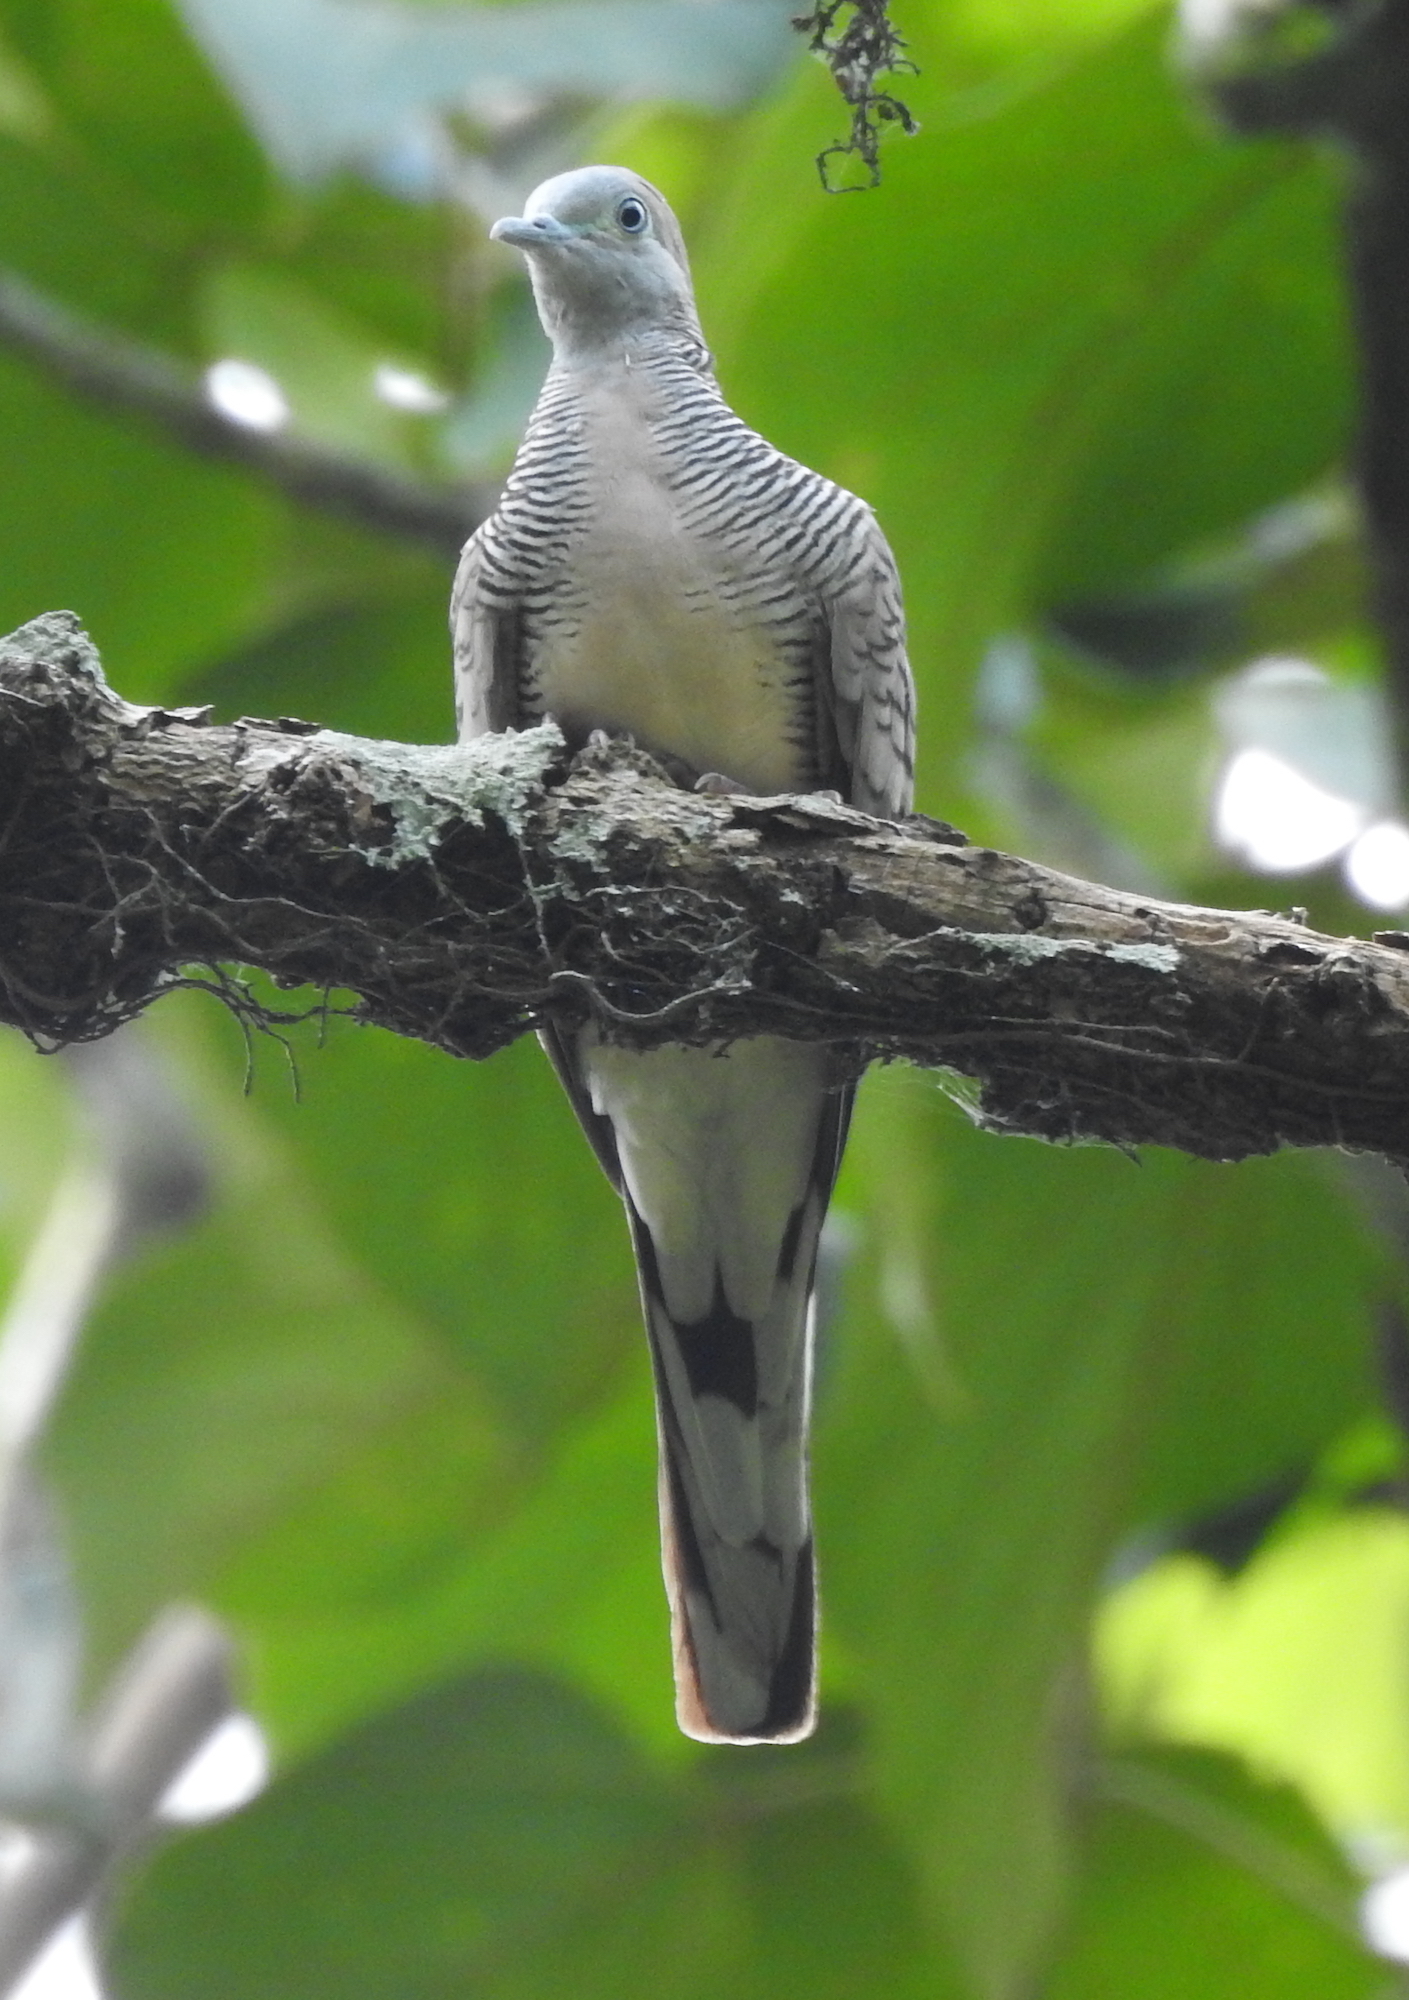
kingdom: Animalia
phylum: Chordata
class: Aves
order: Columbiformes
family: Columbidae
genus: Geopelia
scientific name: Geopelia striata
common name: Zebra dove
